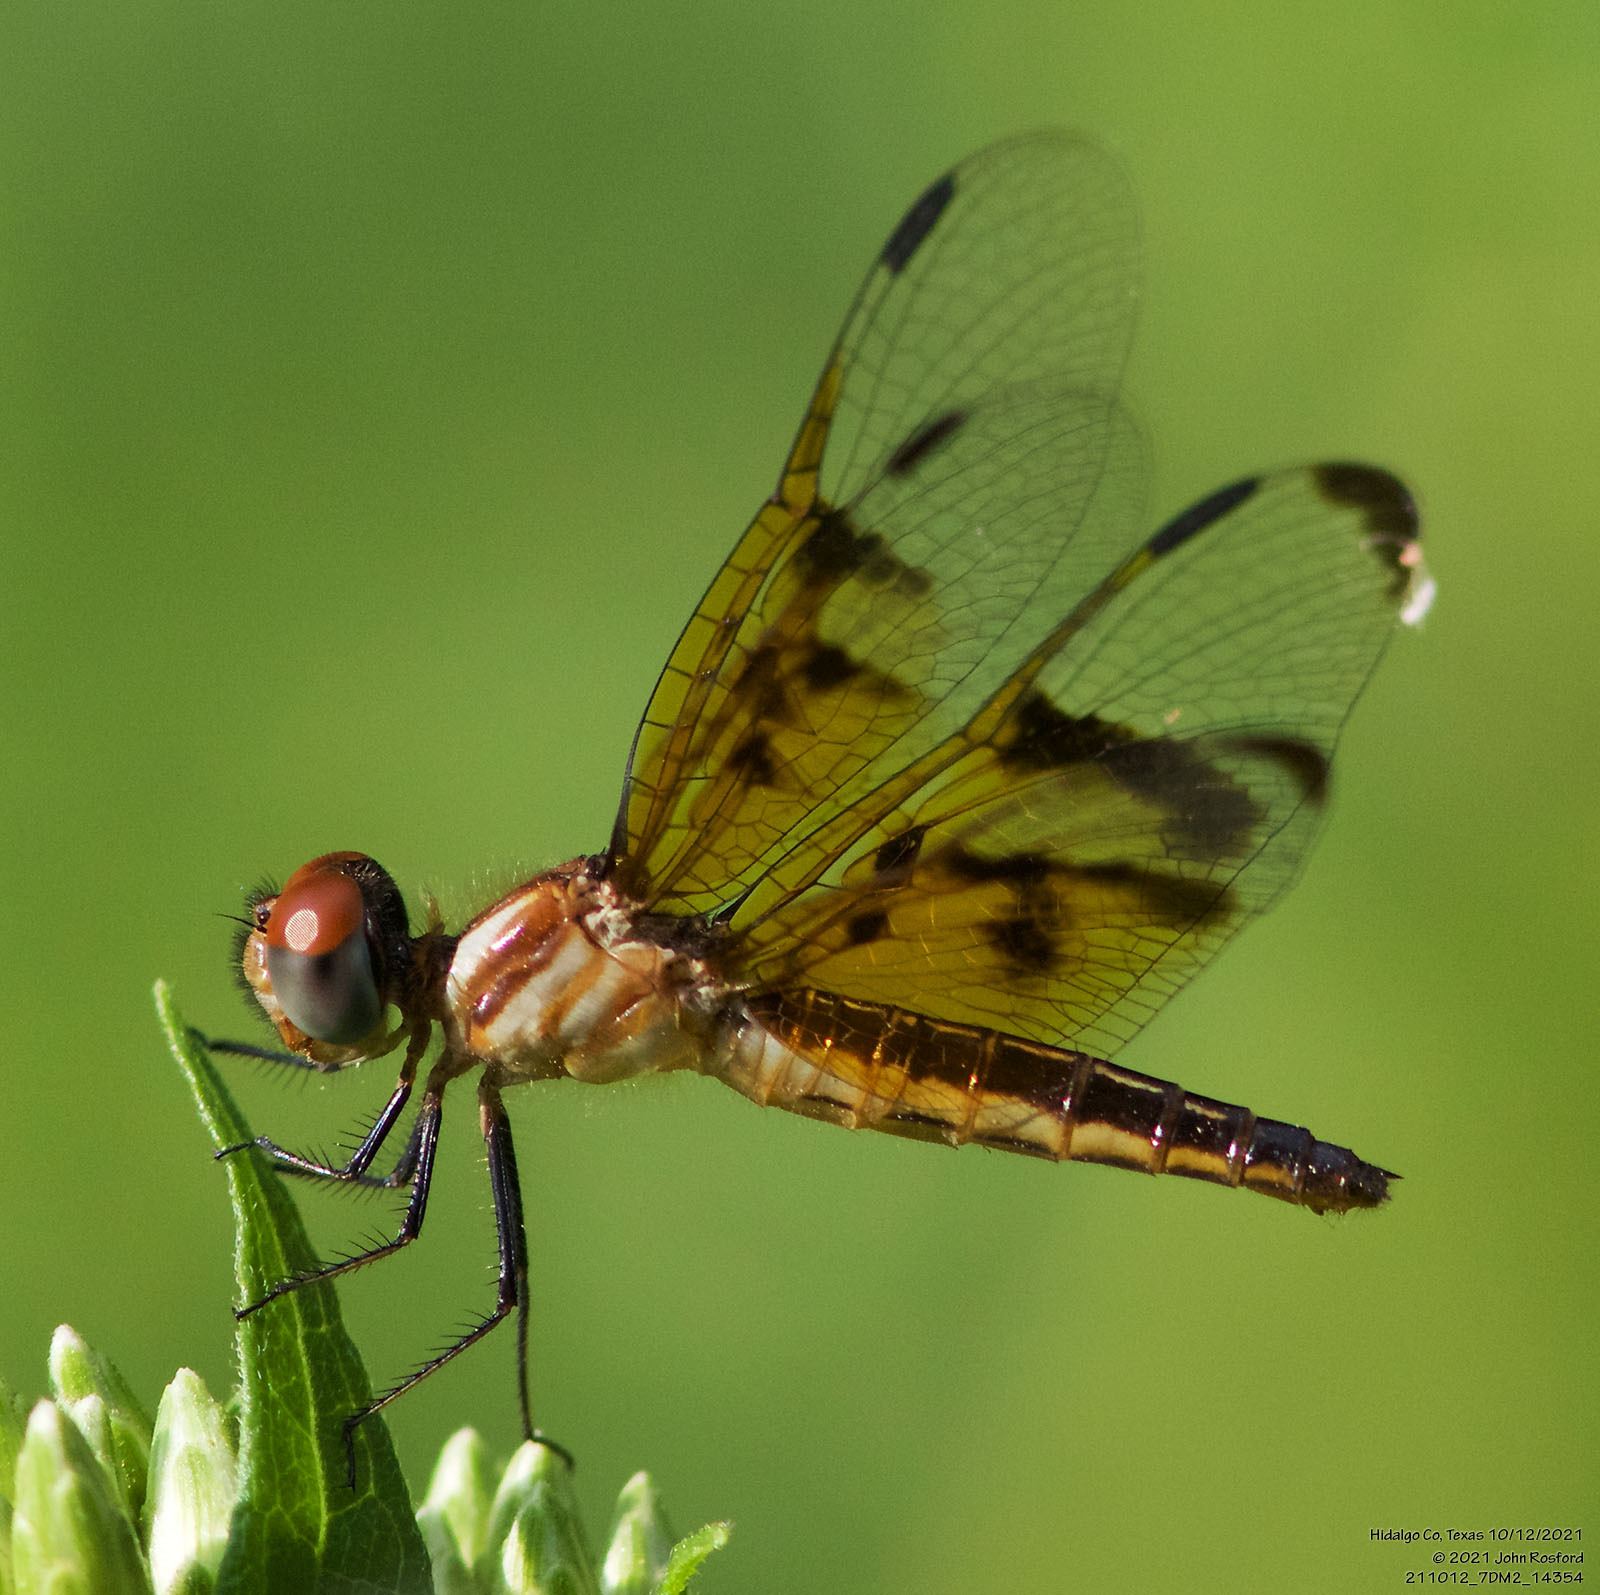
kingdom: Animalia
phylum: Arthropoda
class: Insecta
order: Odonata
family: Libellulidae
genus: Perithemis
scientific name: Perithemis domitia
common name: Slough amberwing
